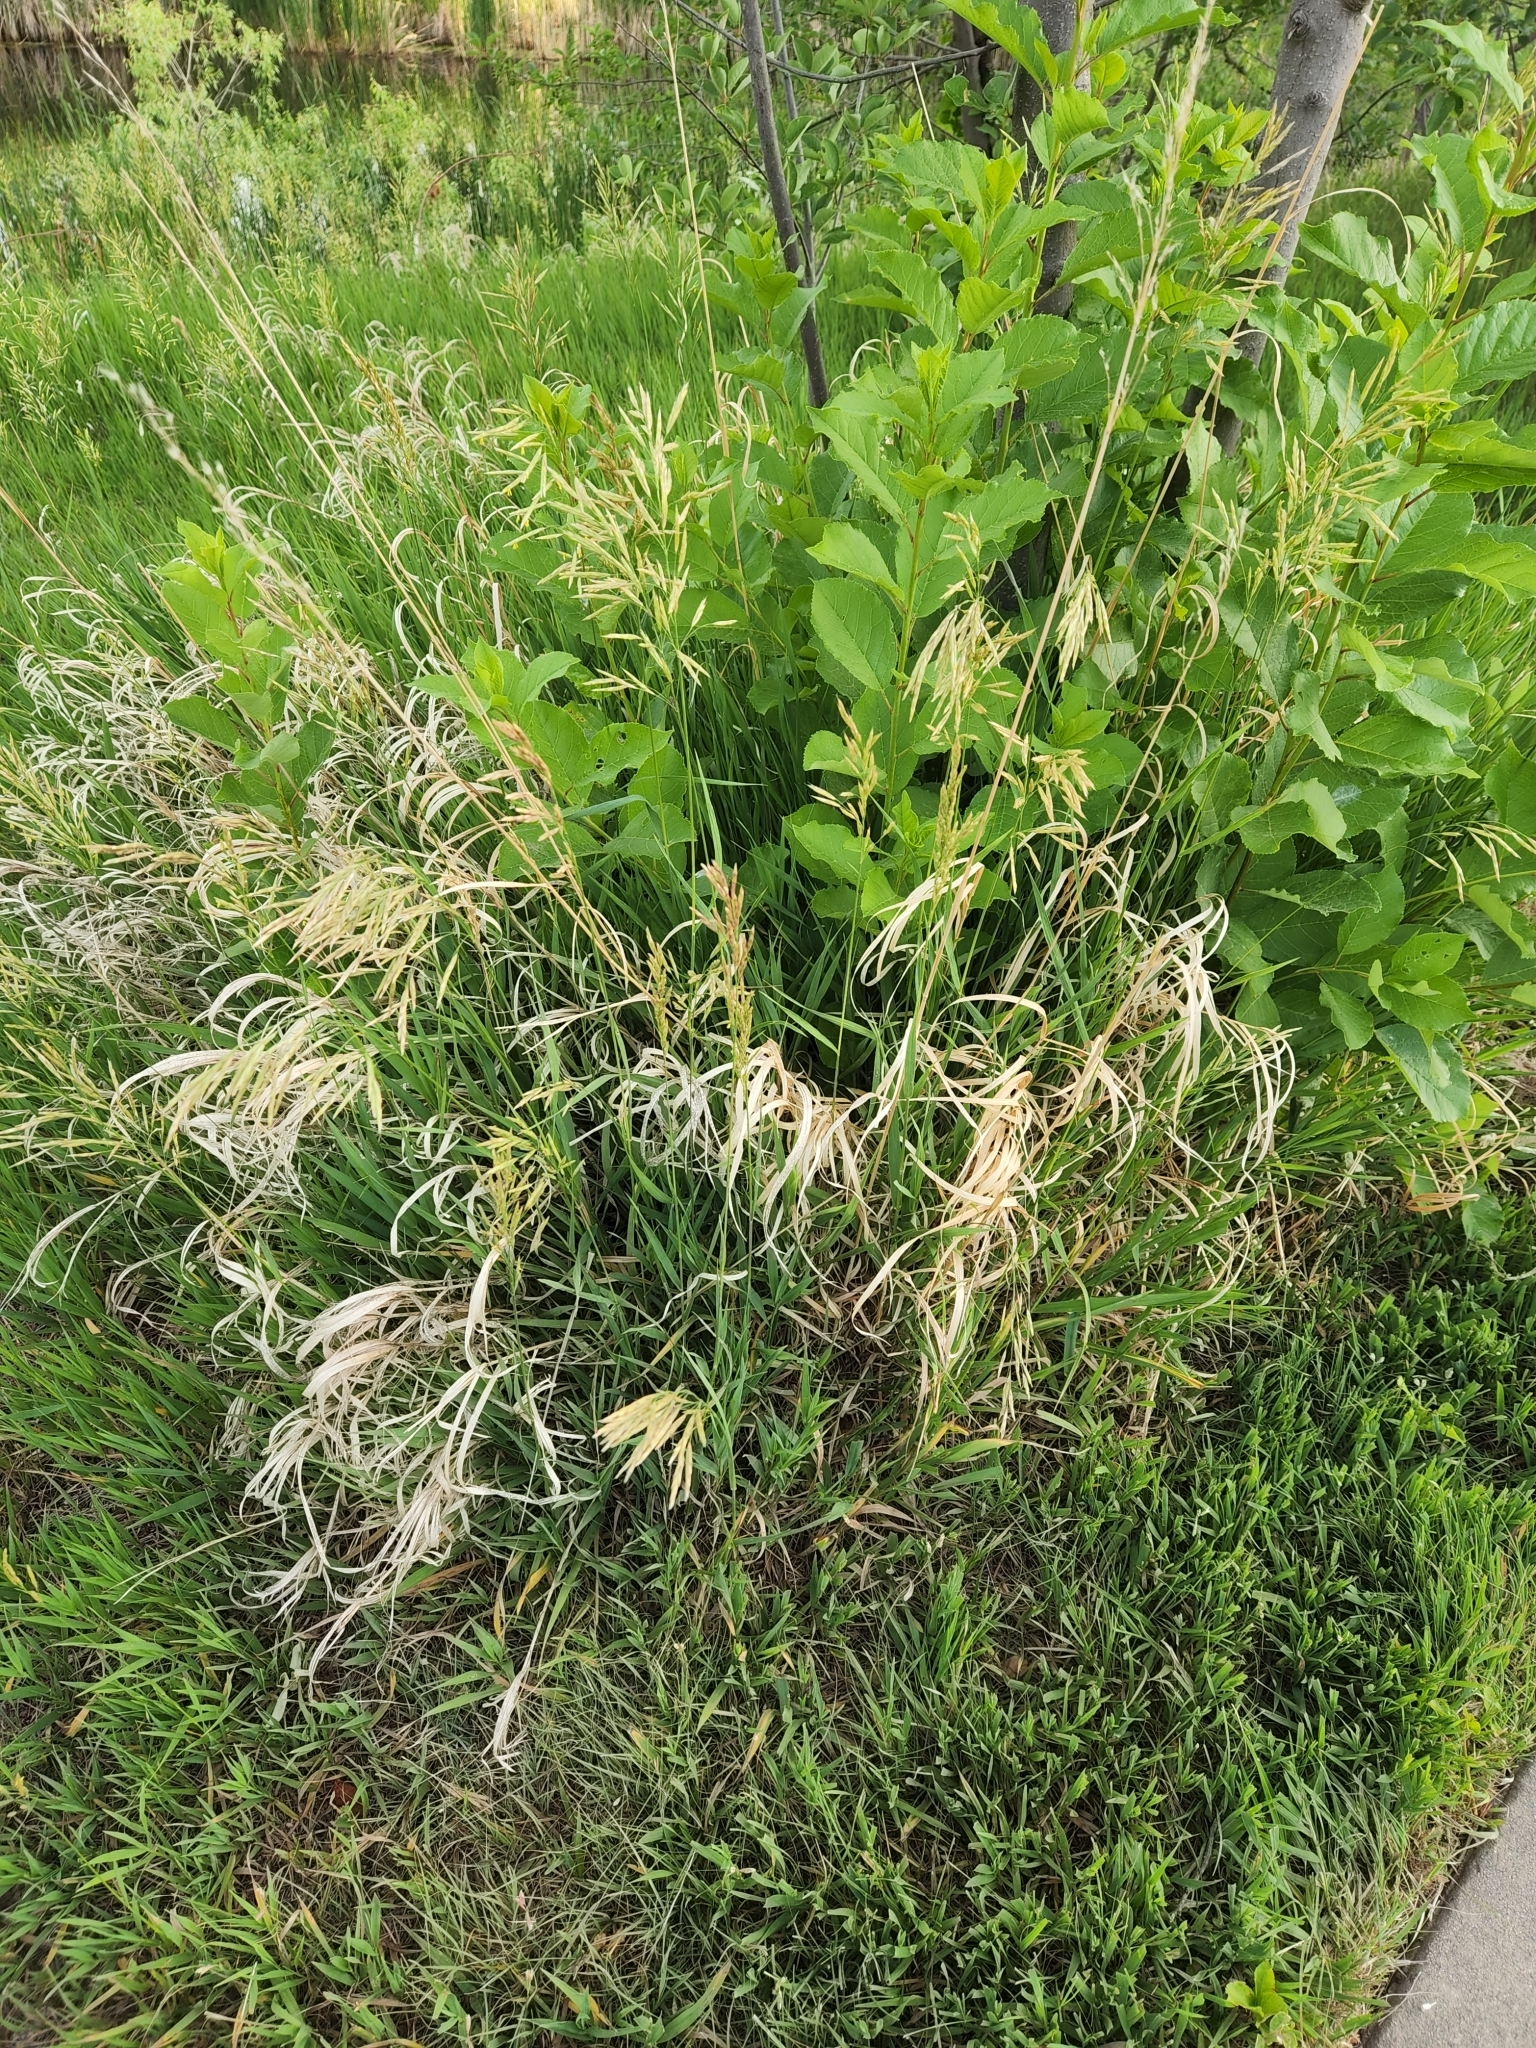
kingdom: Plantae
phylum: Tracheophyta
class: Liliopsida
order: Poales
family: Poaceae
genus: Bromus
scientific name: Bromus inermis
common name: Smooth brome
